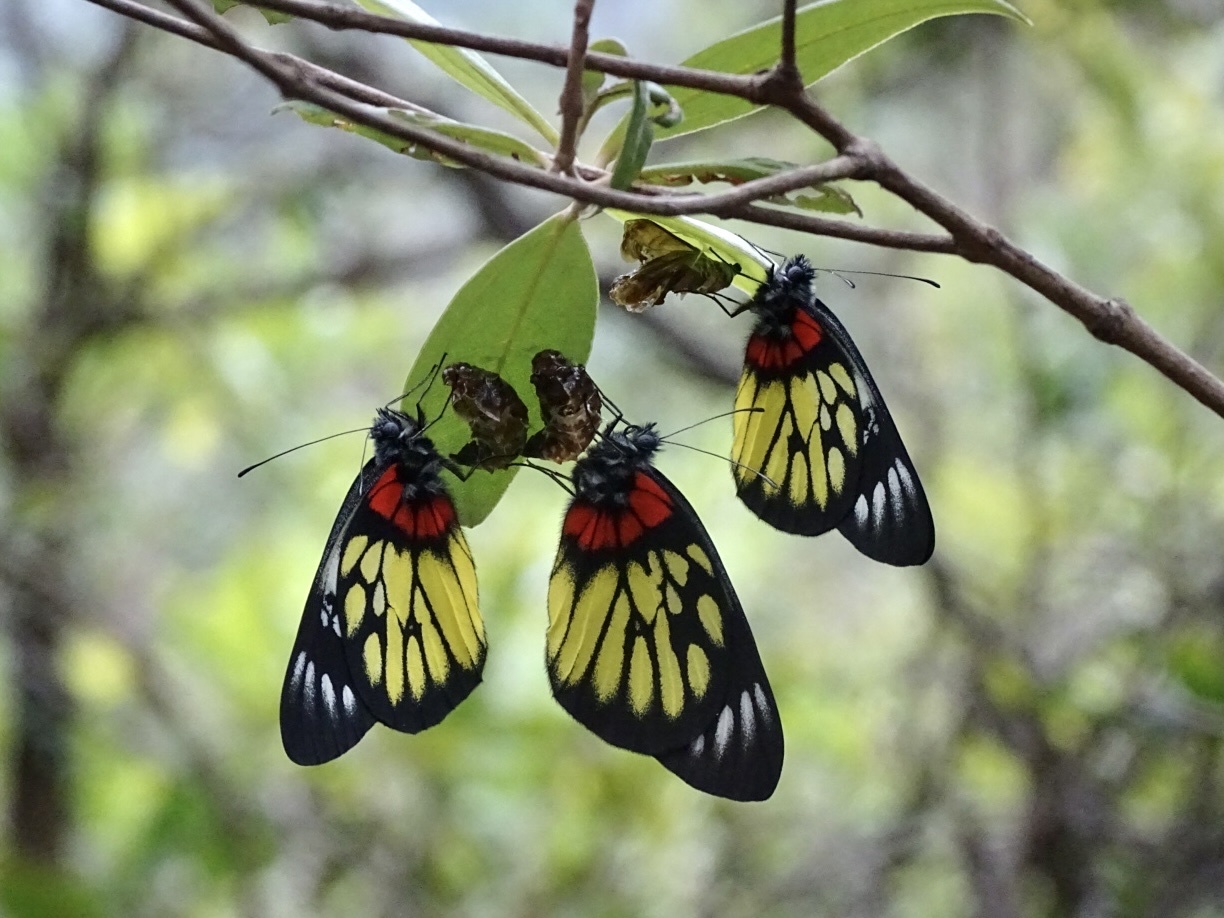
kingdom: Animalia
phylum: Arthropoda
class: Insecta
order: Lepidoptera
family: Pieridae
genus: Delias
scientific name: Delias pasithoe
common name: Red-base jezebel
